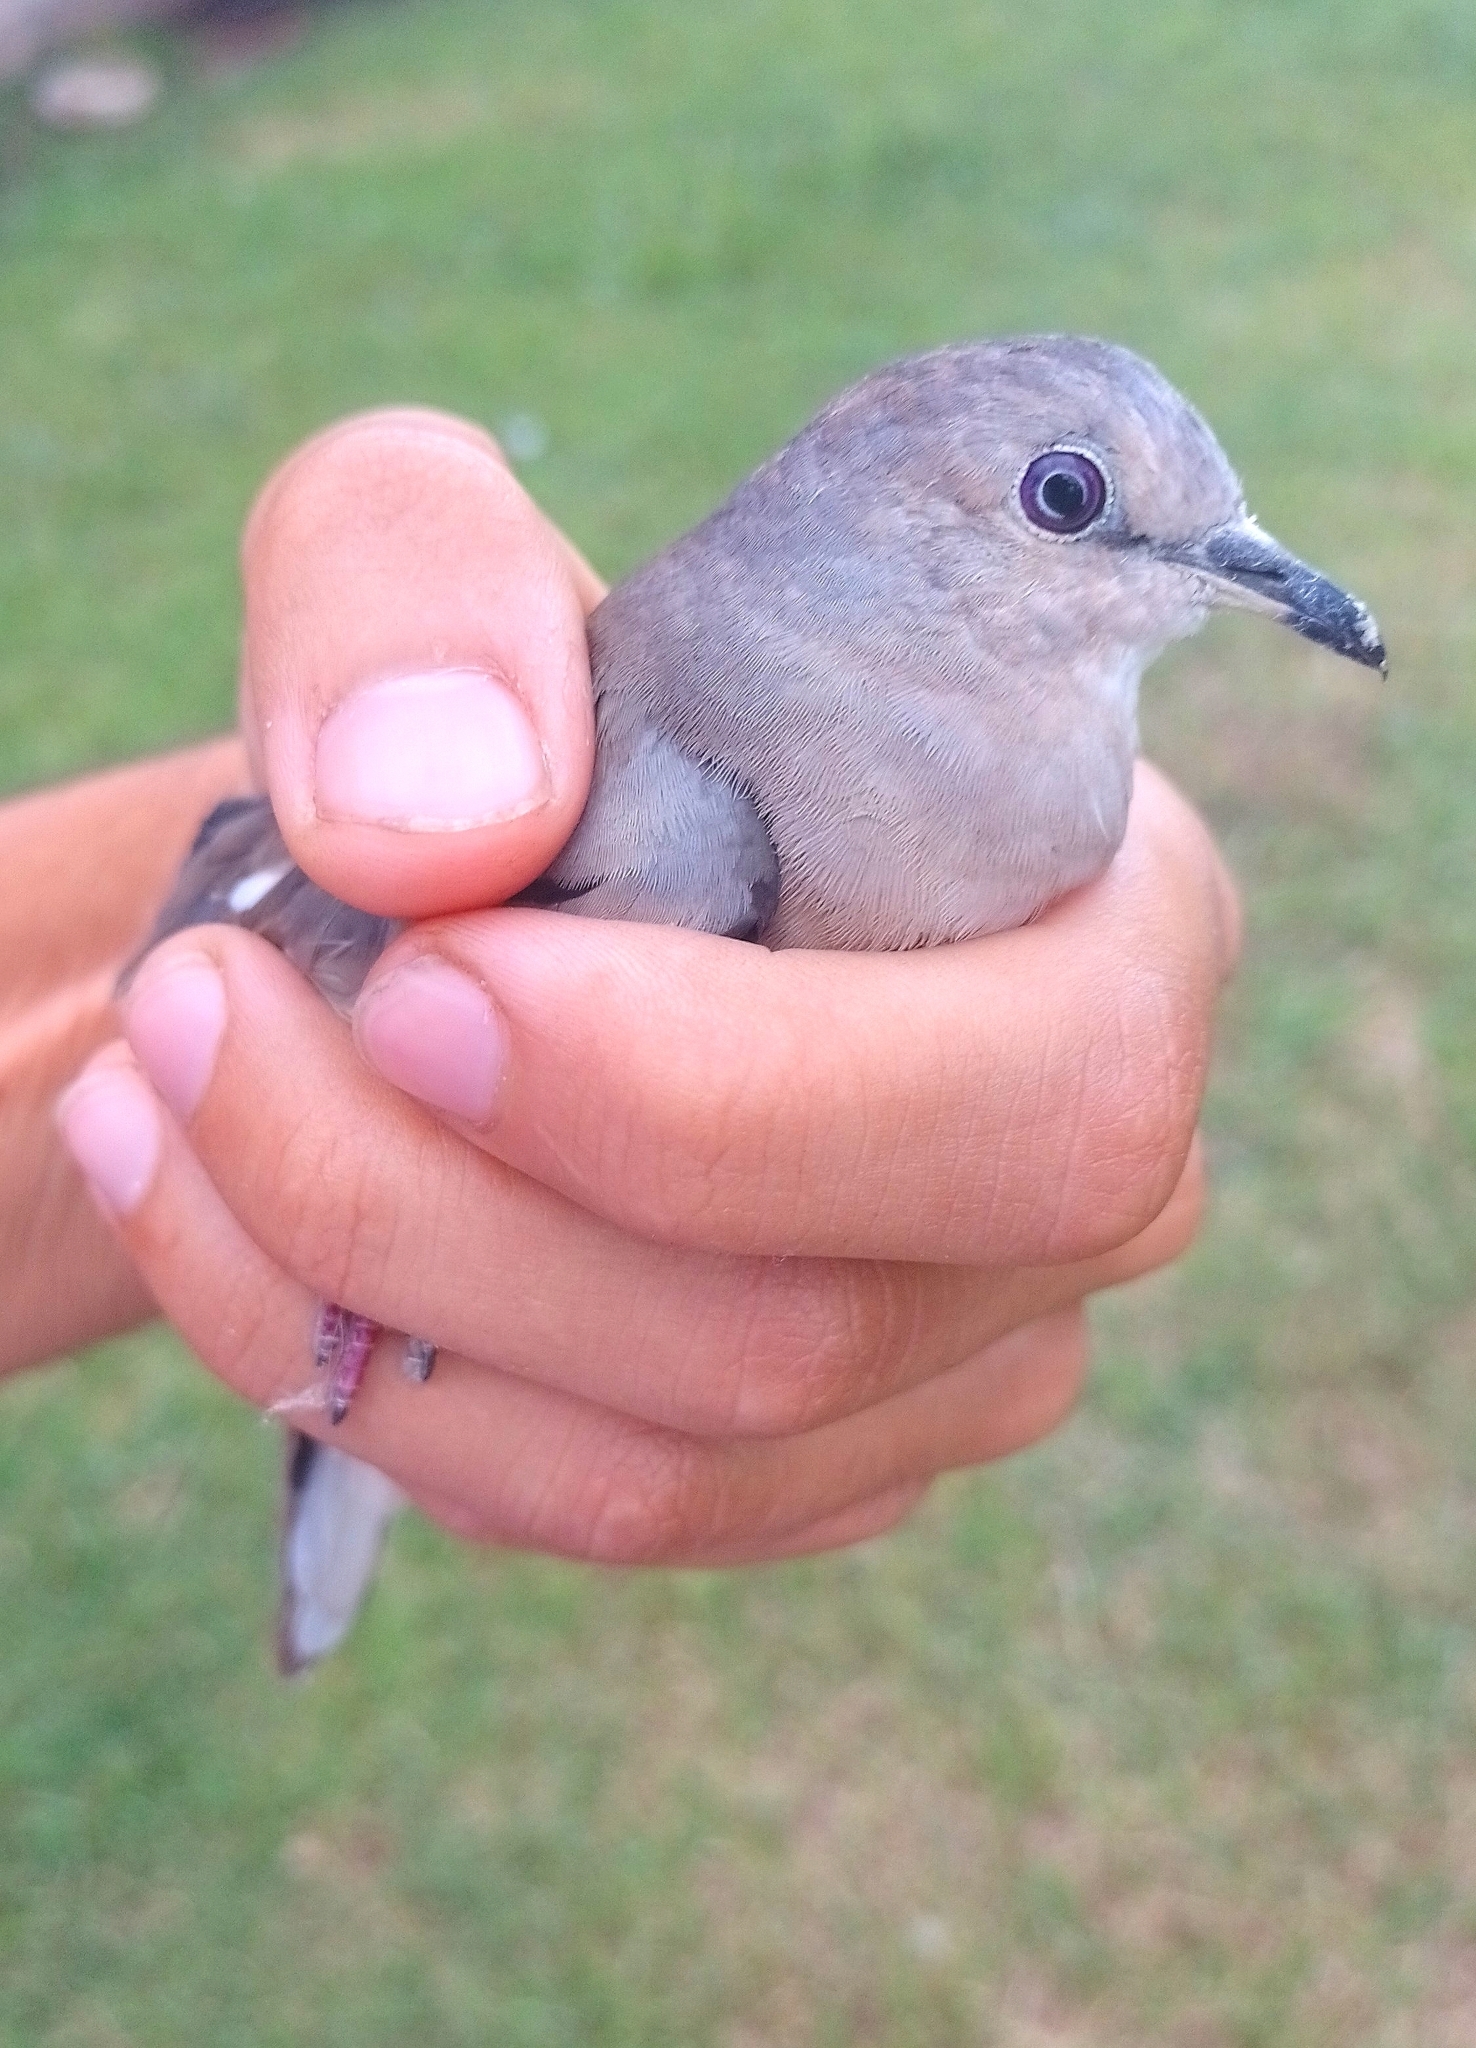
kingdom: Animalia
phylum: Chordata
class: Aves
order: Columbiformes
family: Columbidae
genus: Columbina
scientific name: Columbina picui
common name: Picui ground dove
